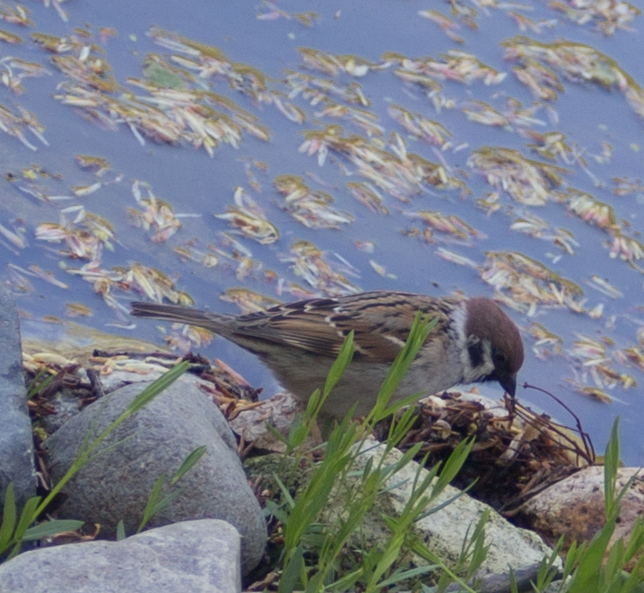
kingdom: Animalia
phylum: Chordata
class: Aves
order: Passeriformes
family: Passeridae
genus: Passer
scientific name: Passer montanus
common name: Eurasian tree sparrow
